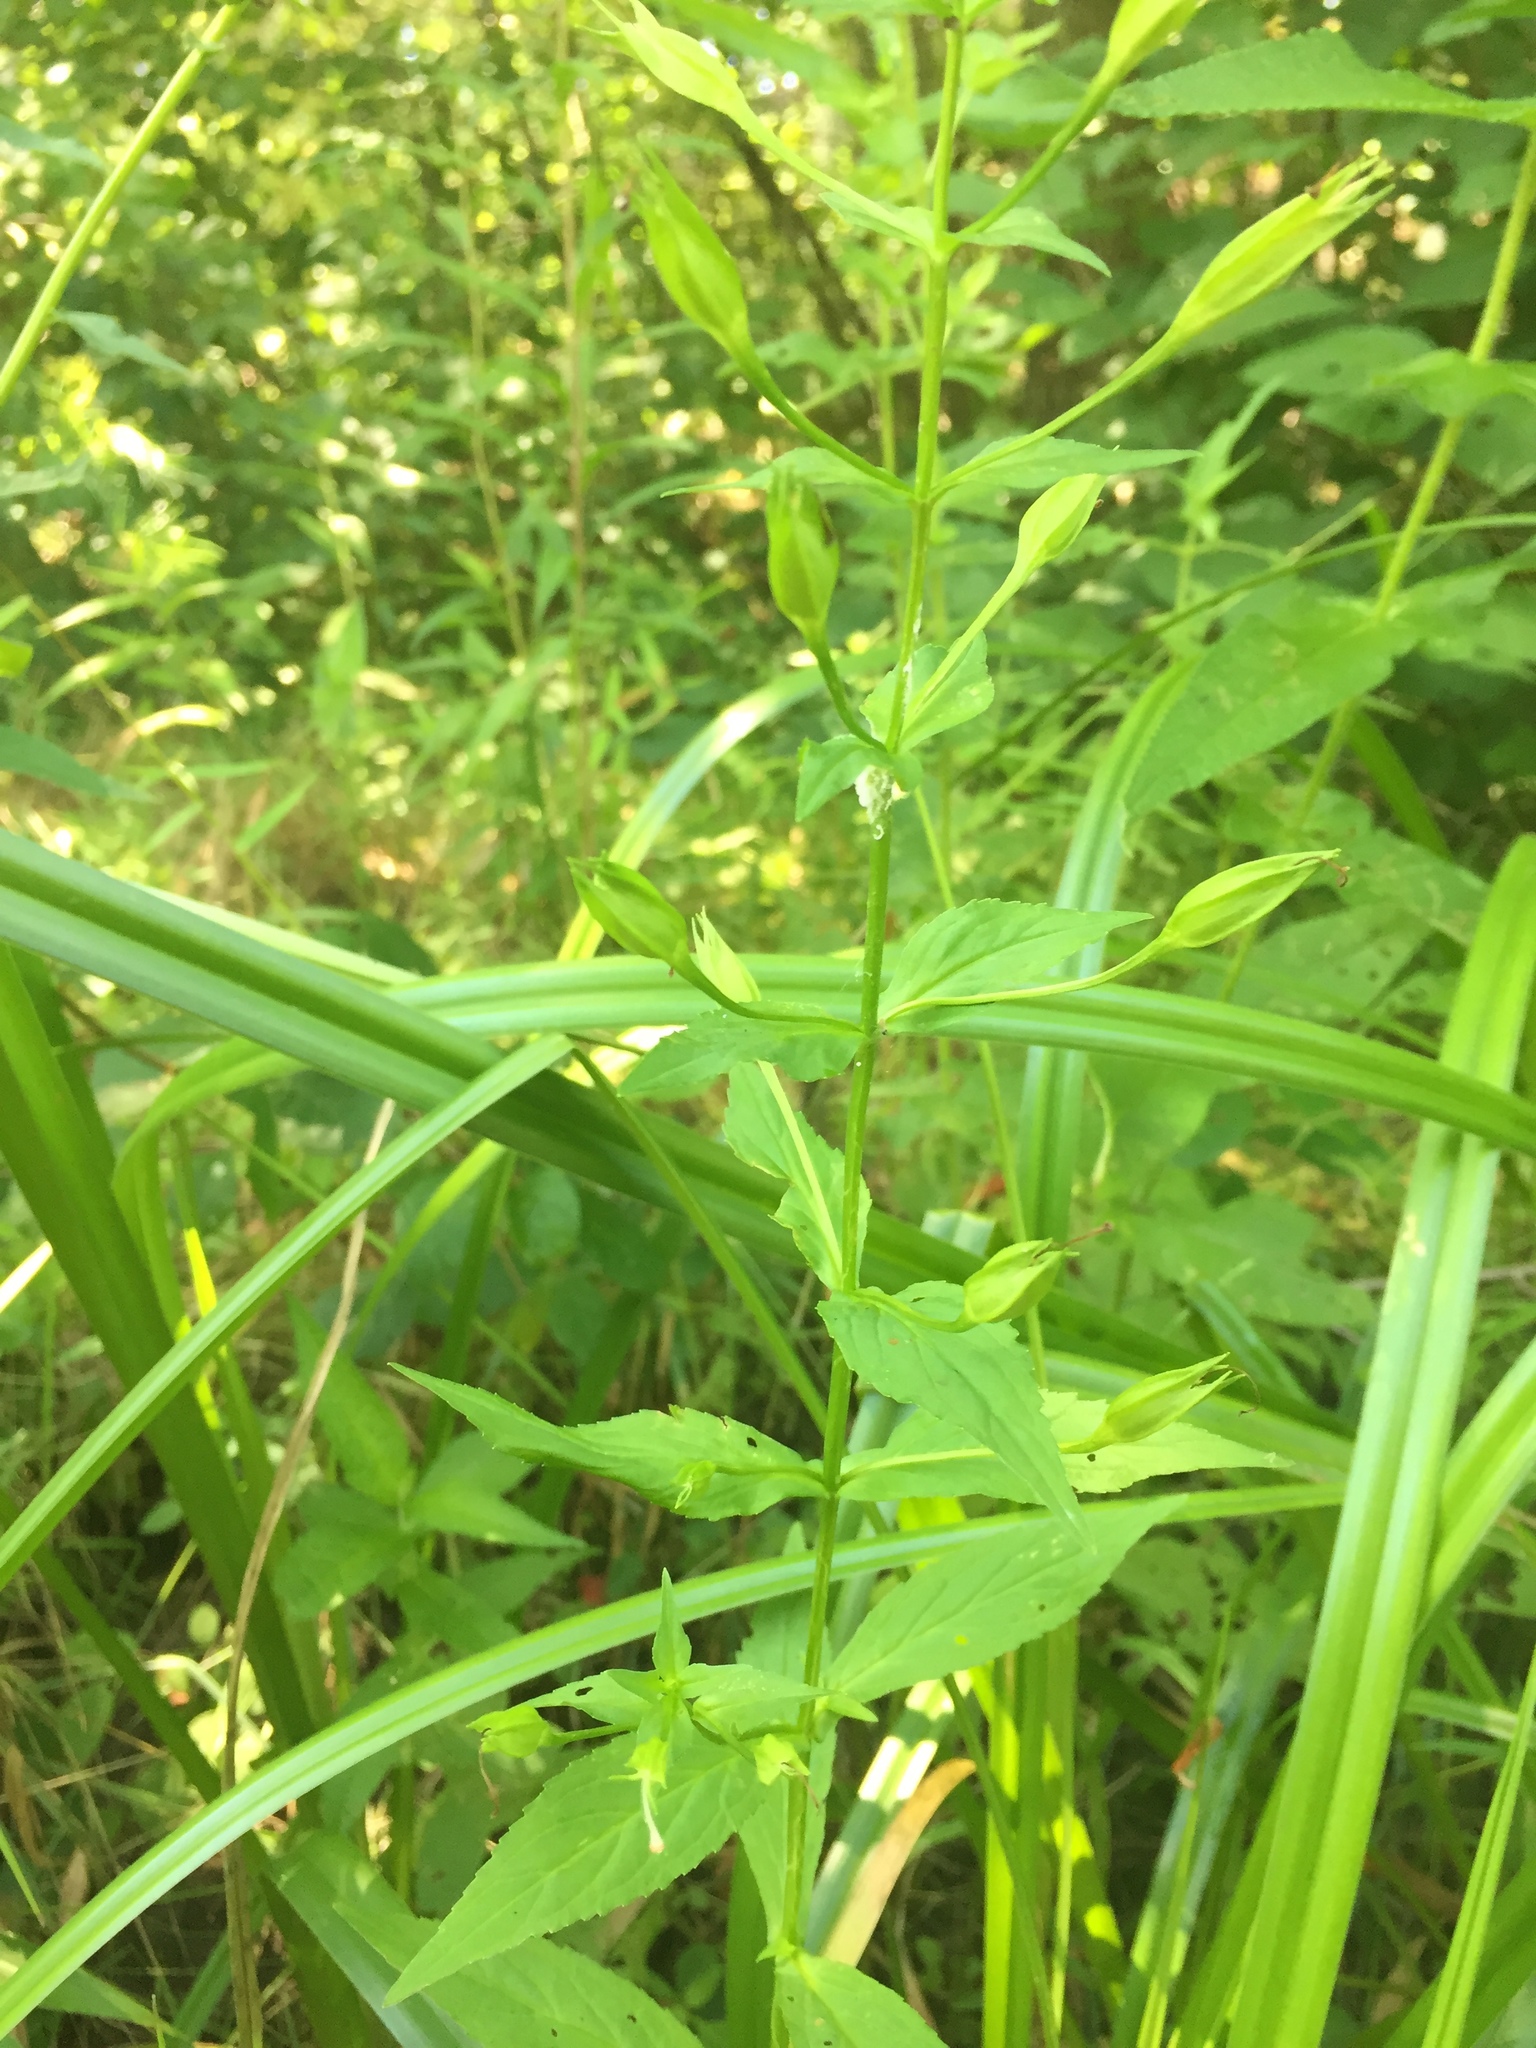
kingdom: Plantae
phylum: Tracheophyta
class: Magnoliopsida
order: Lamiales
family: Phrymaceae
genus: Mimulus
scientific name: Mimulus ringens
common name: Allegheny monkeyflower
